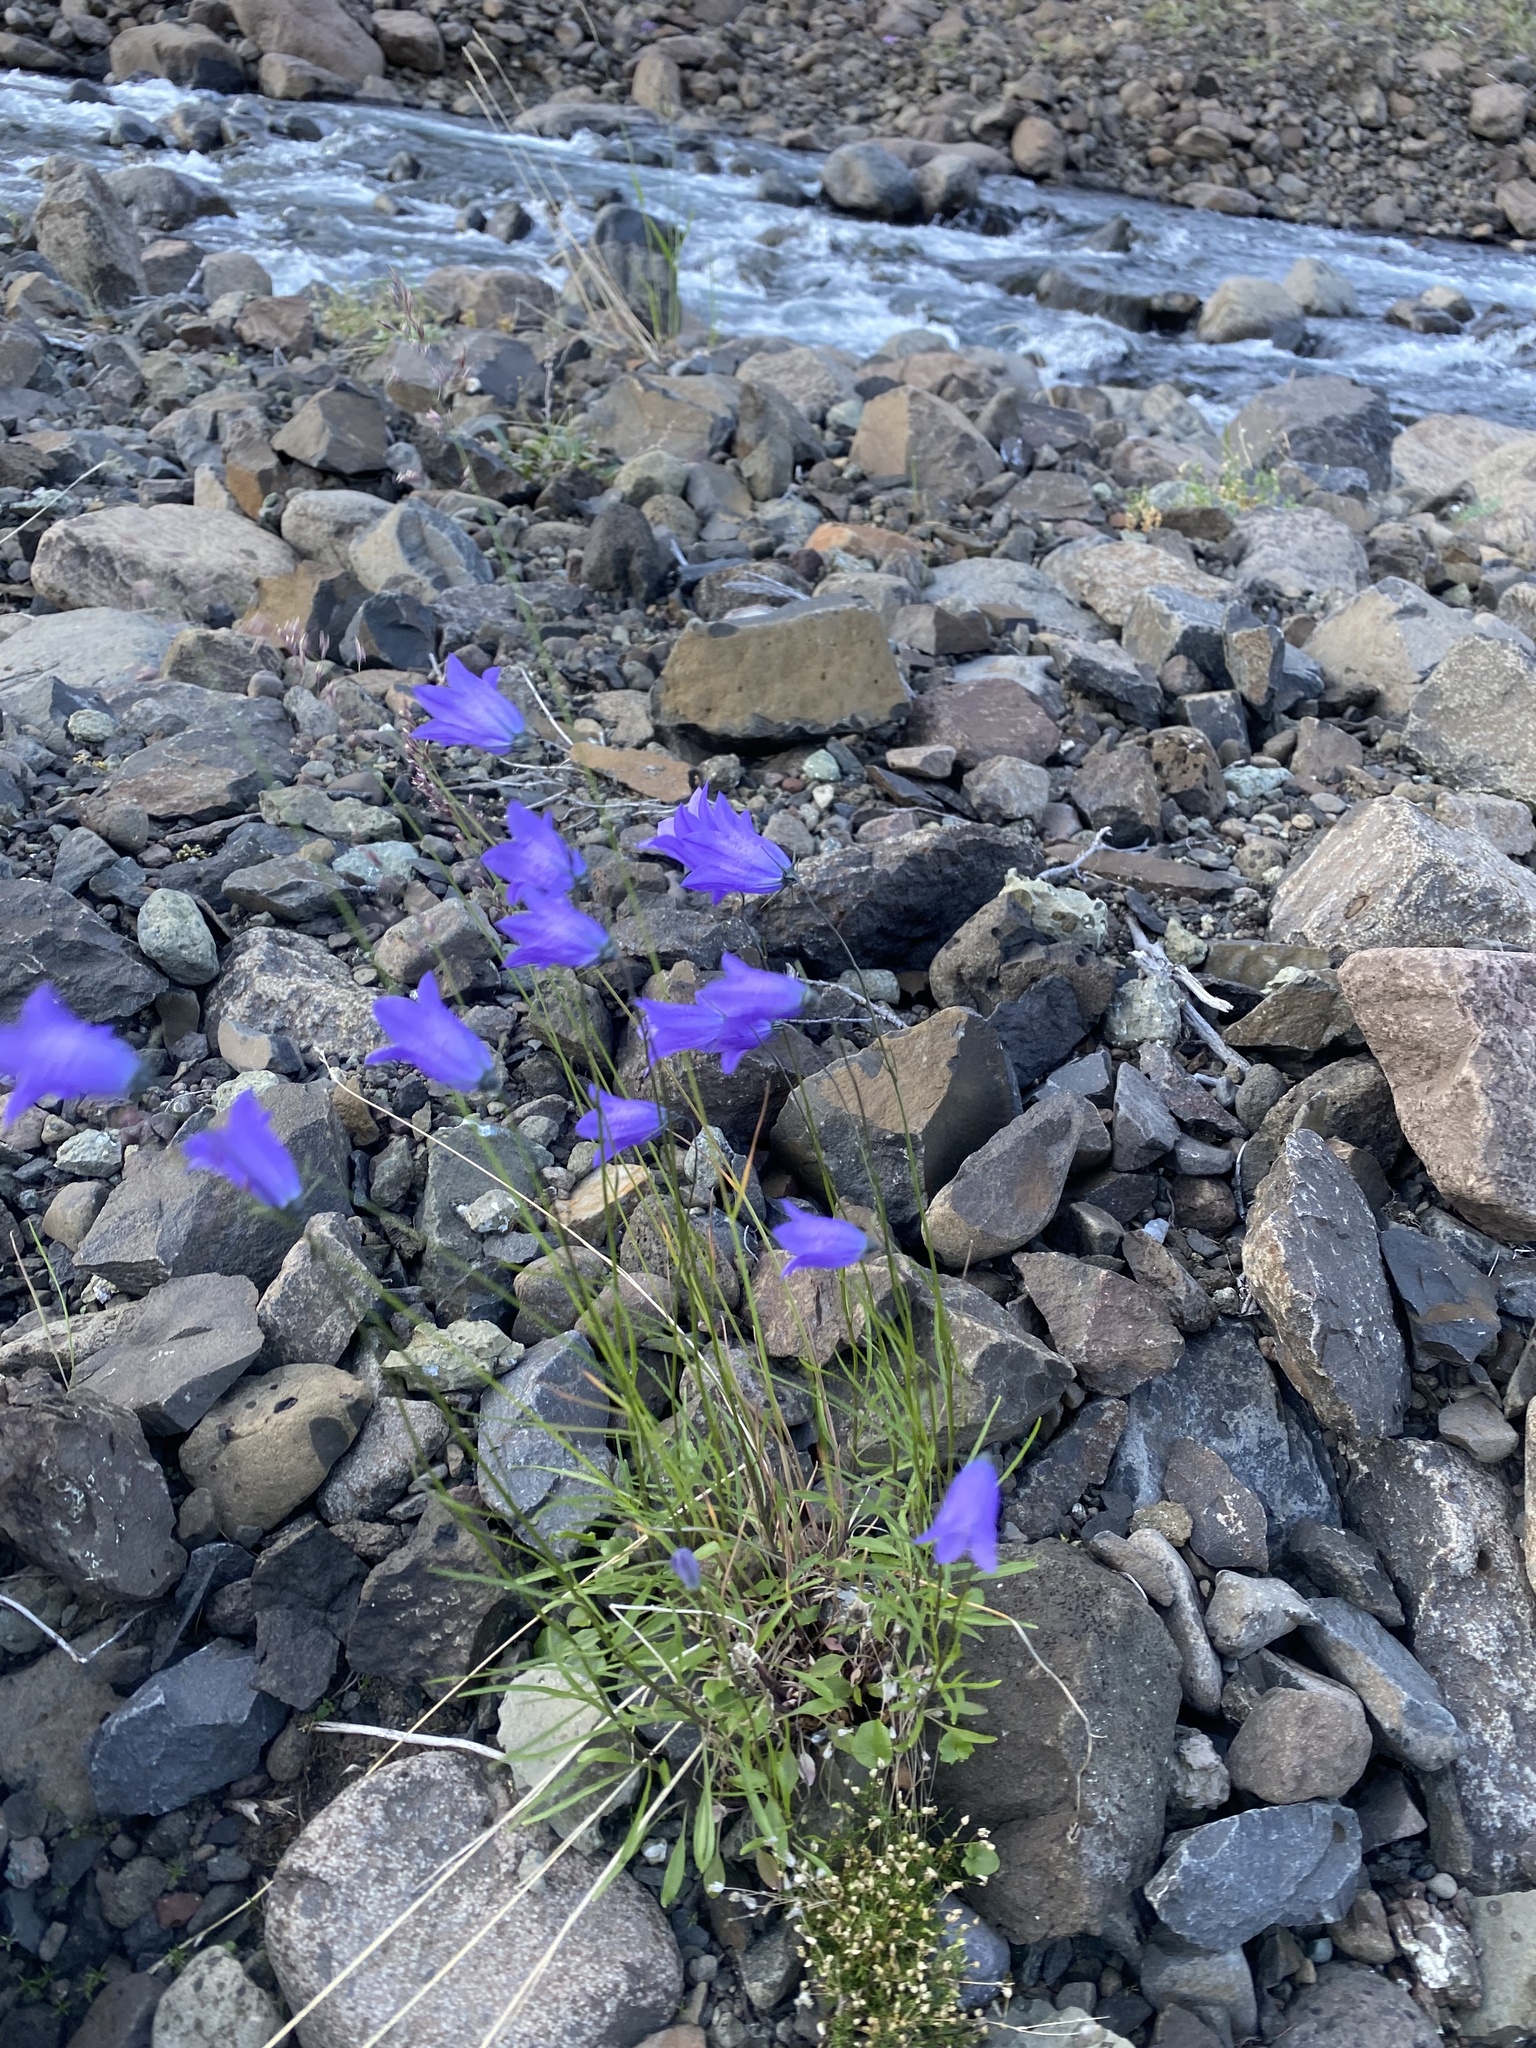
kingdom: Plantae
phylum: Tracheophyta
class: Magnoliopsida
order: Asterales
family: Campanulaceae
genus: Campanula
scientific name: Campanula rotundifolia
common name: Harebell
